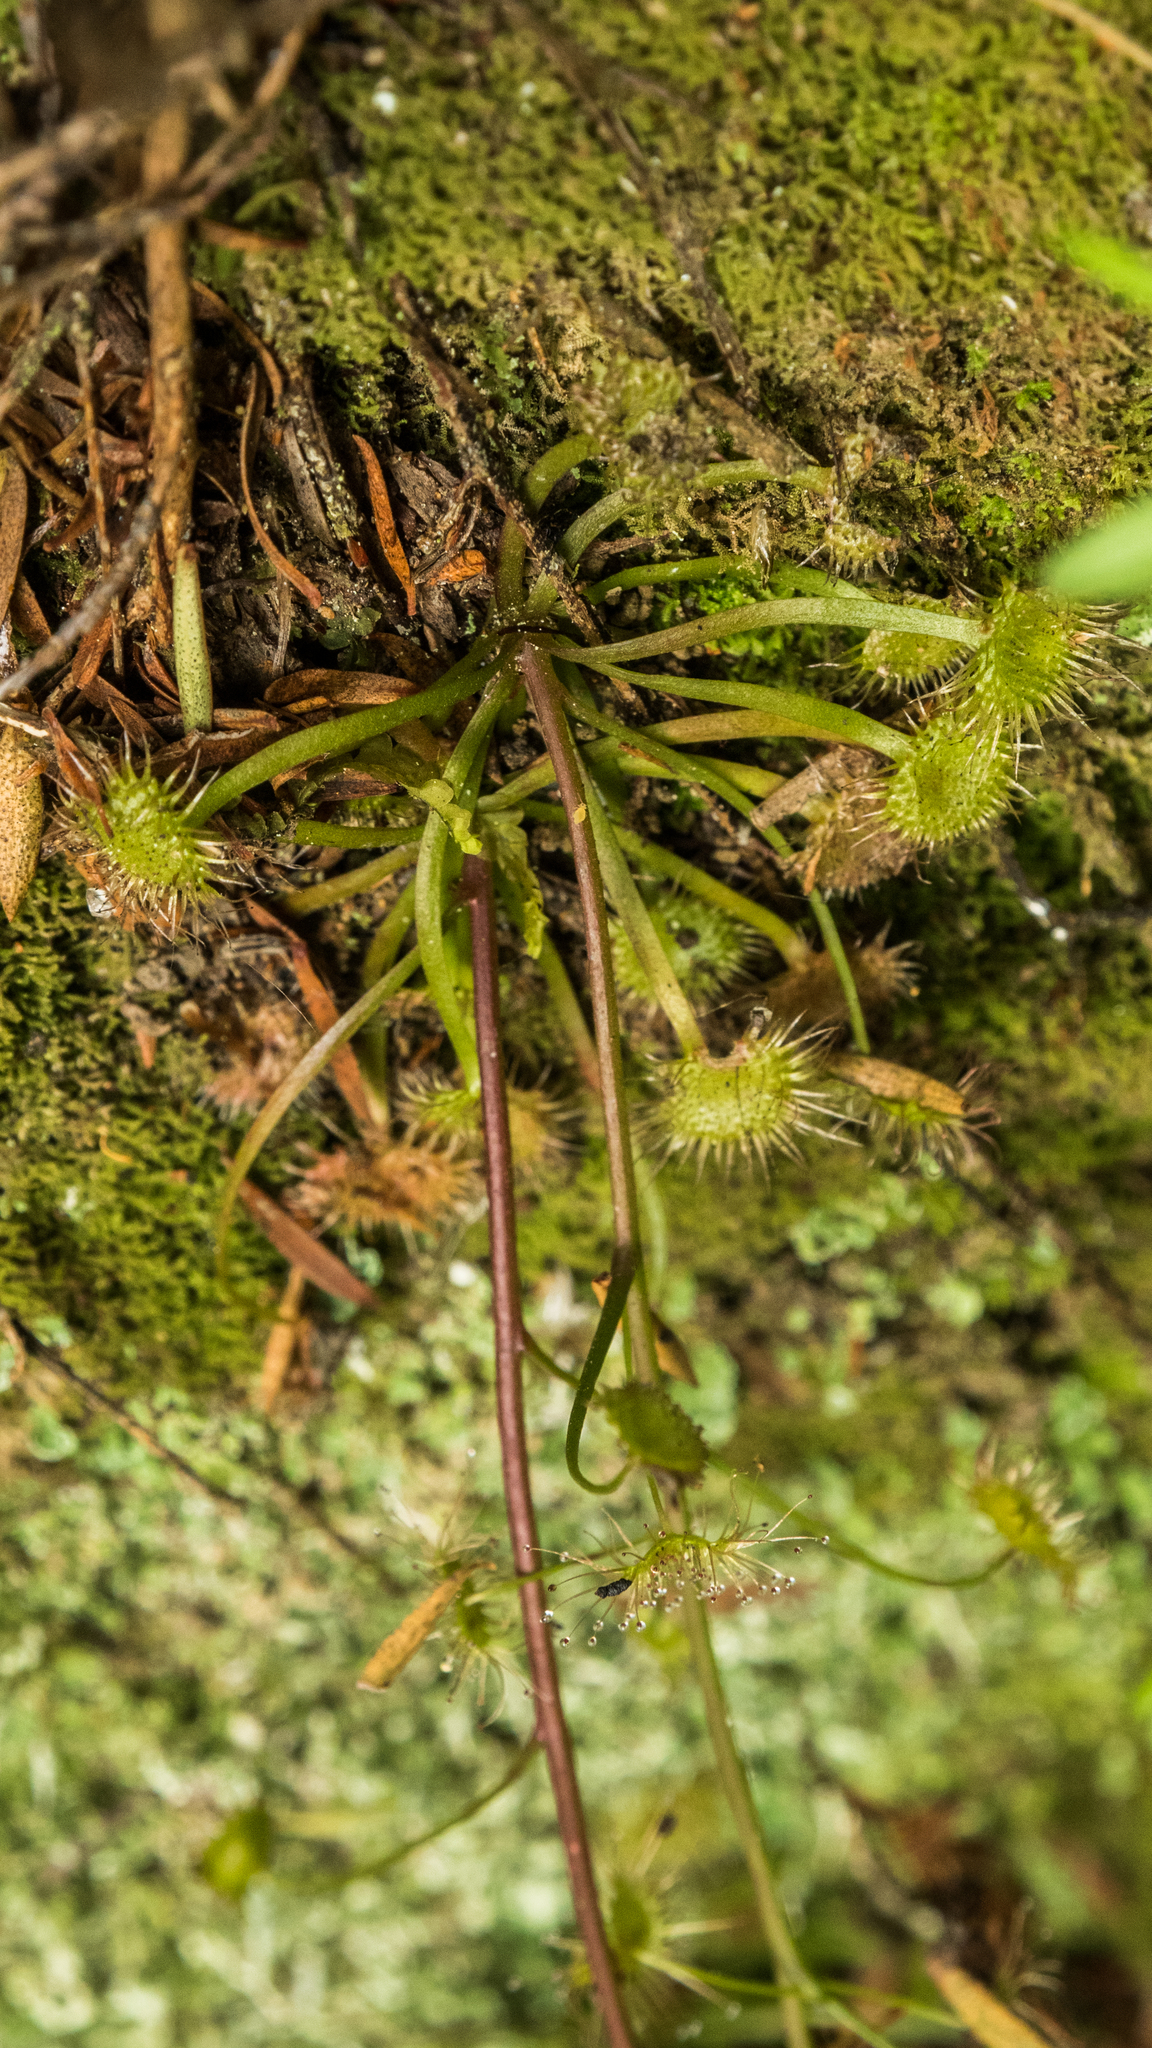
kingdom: Plantae
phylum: Tracheophyta
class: Magnoliopsida
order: Caryophyllales
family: Droseraceae
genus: Drosera
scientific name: Drosera peltata
